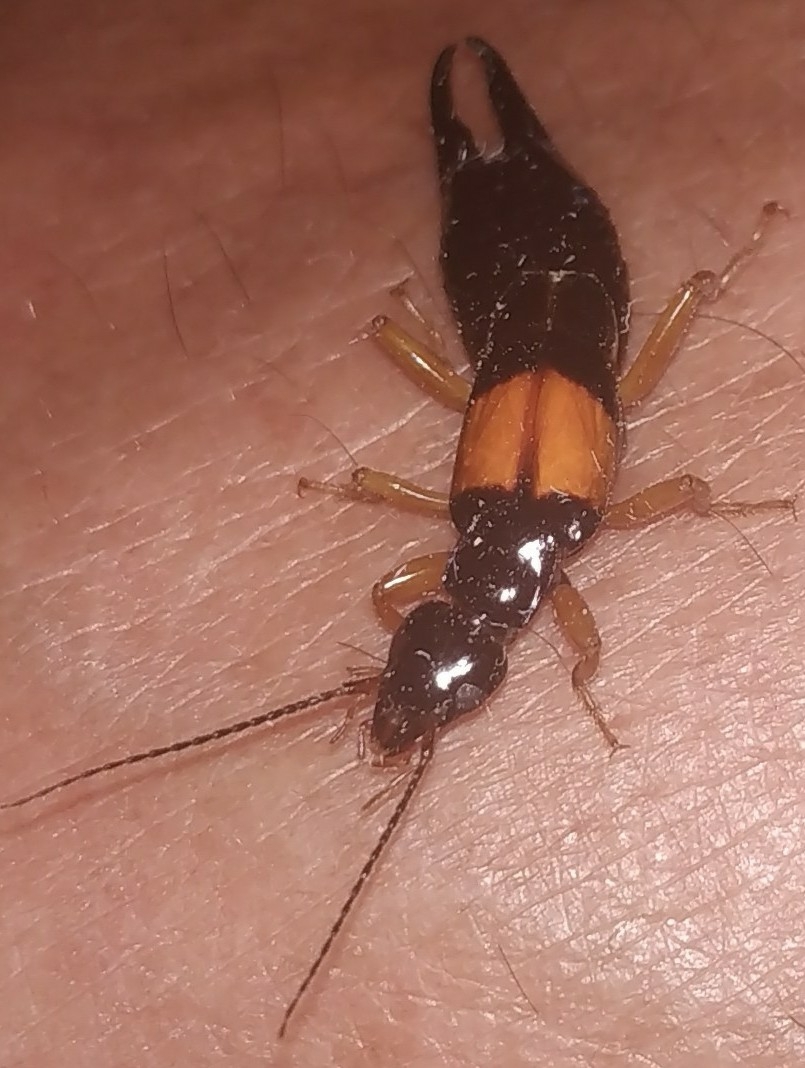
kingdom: Animalia
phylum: Arthropoda
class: Insecta
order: Dermaptera
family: Anisolabididae
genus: Carcinophora
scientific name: Carcinophora americana
